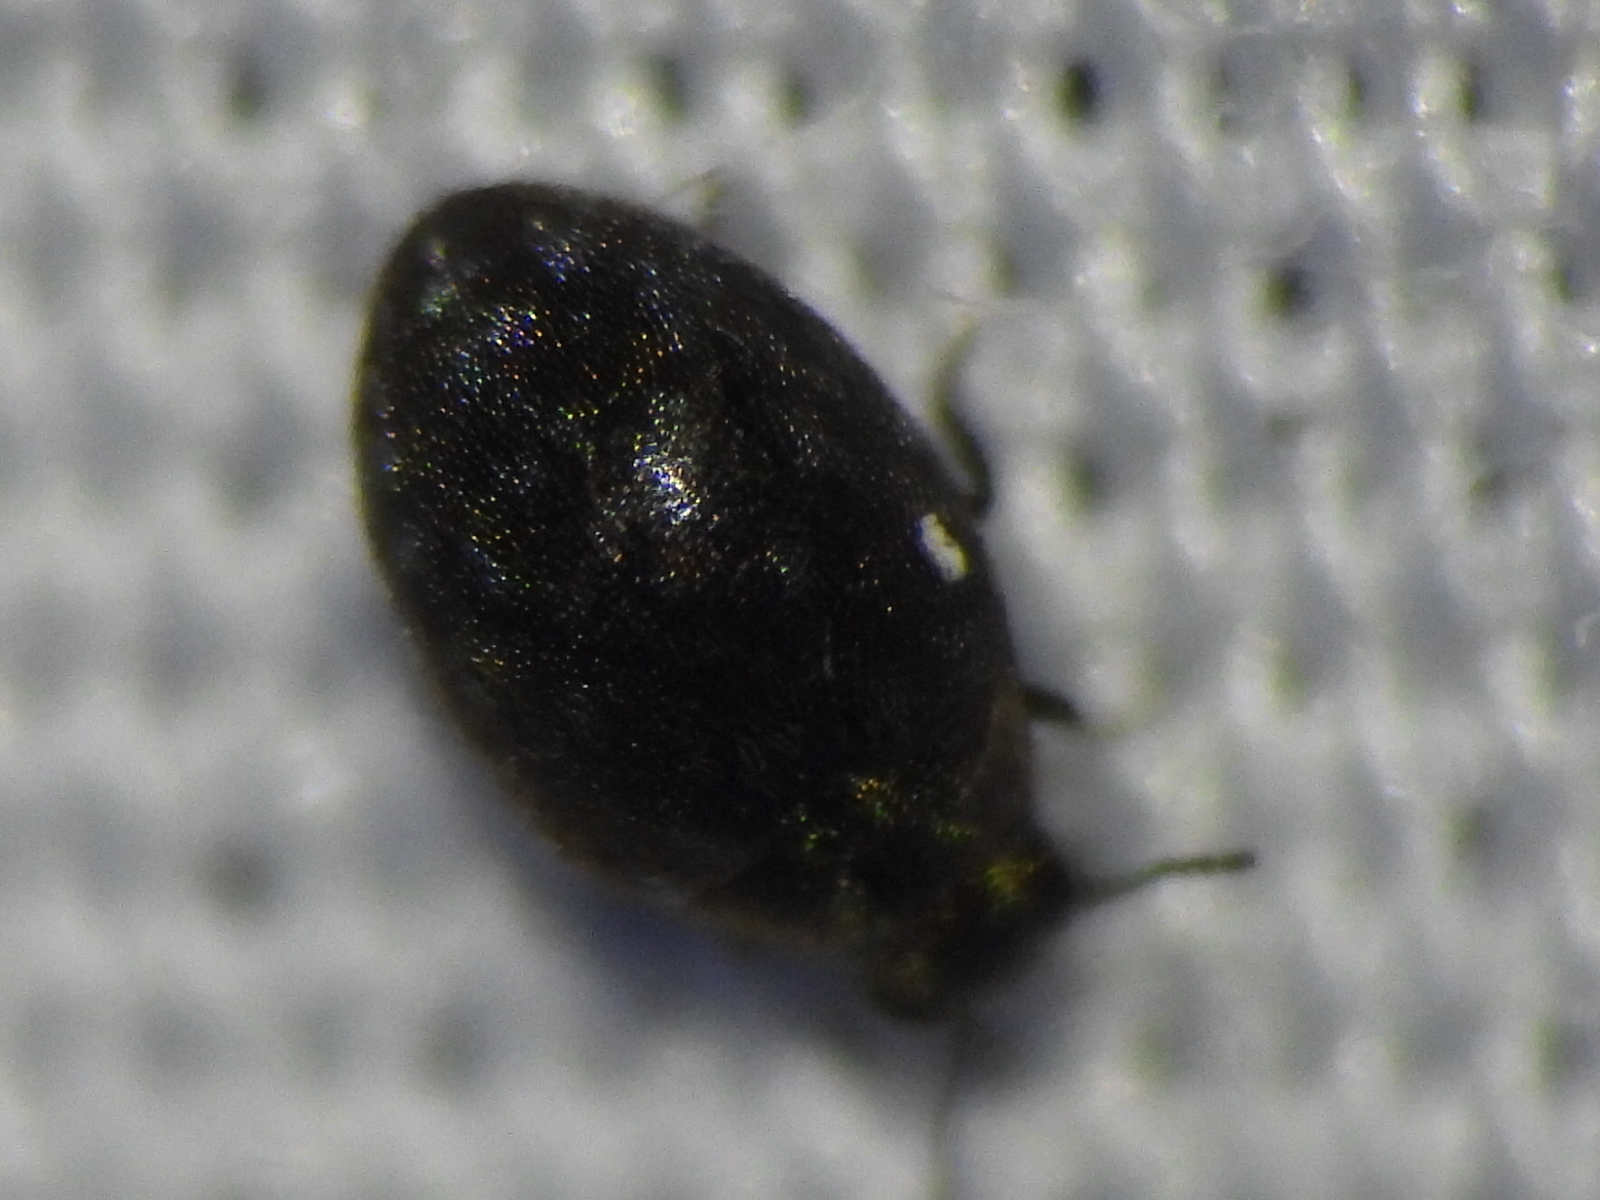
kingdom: Animalia
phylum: Arthropoda
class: Insecta
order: Coleoptera
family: Limnichidae
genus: Eulimnichus
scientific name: Eulimnichus ater
